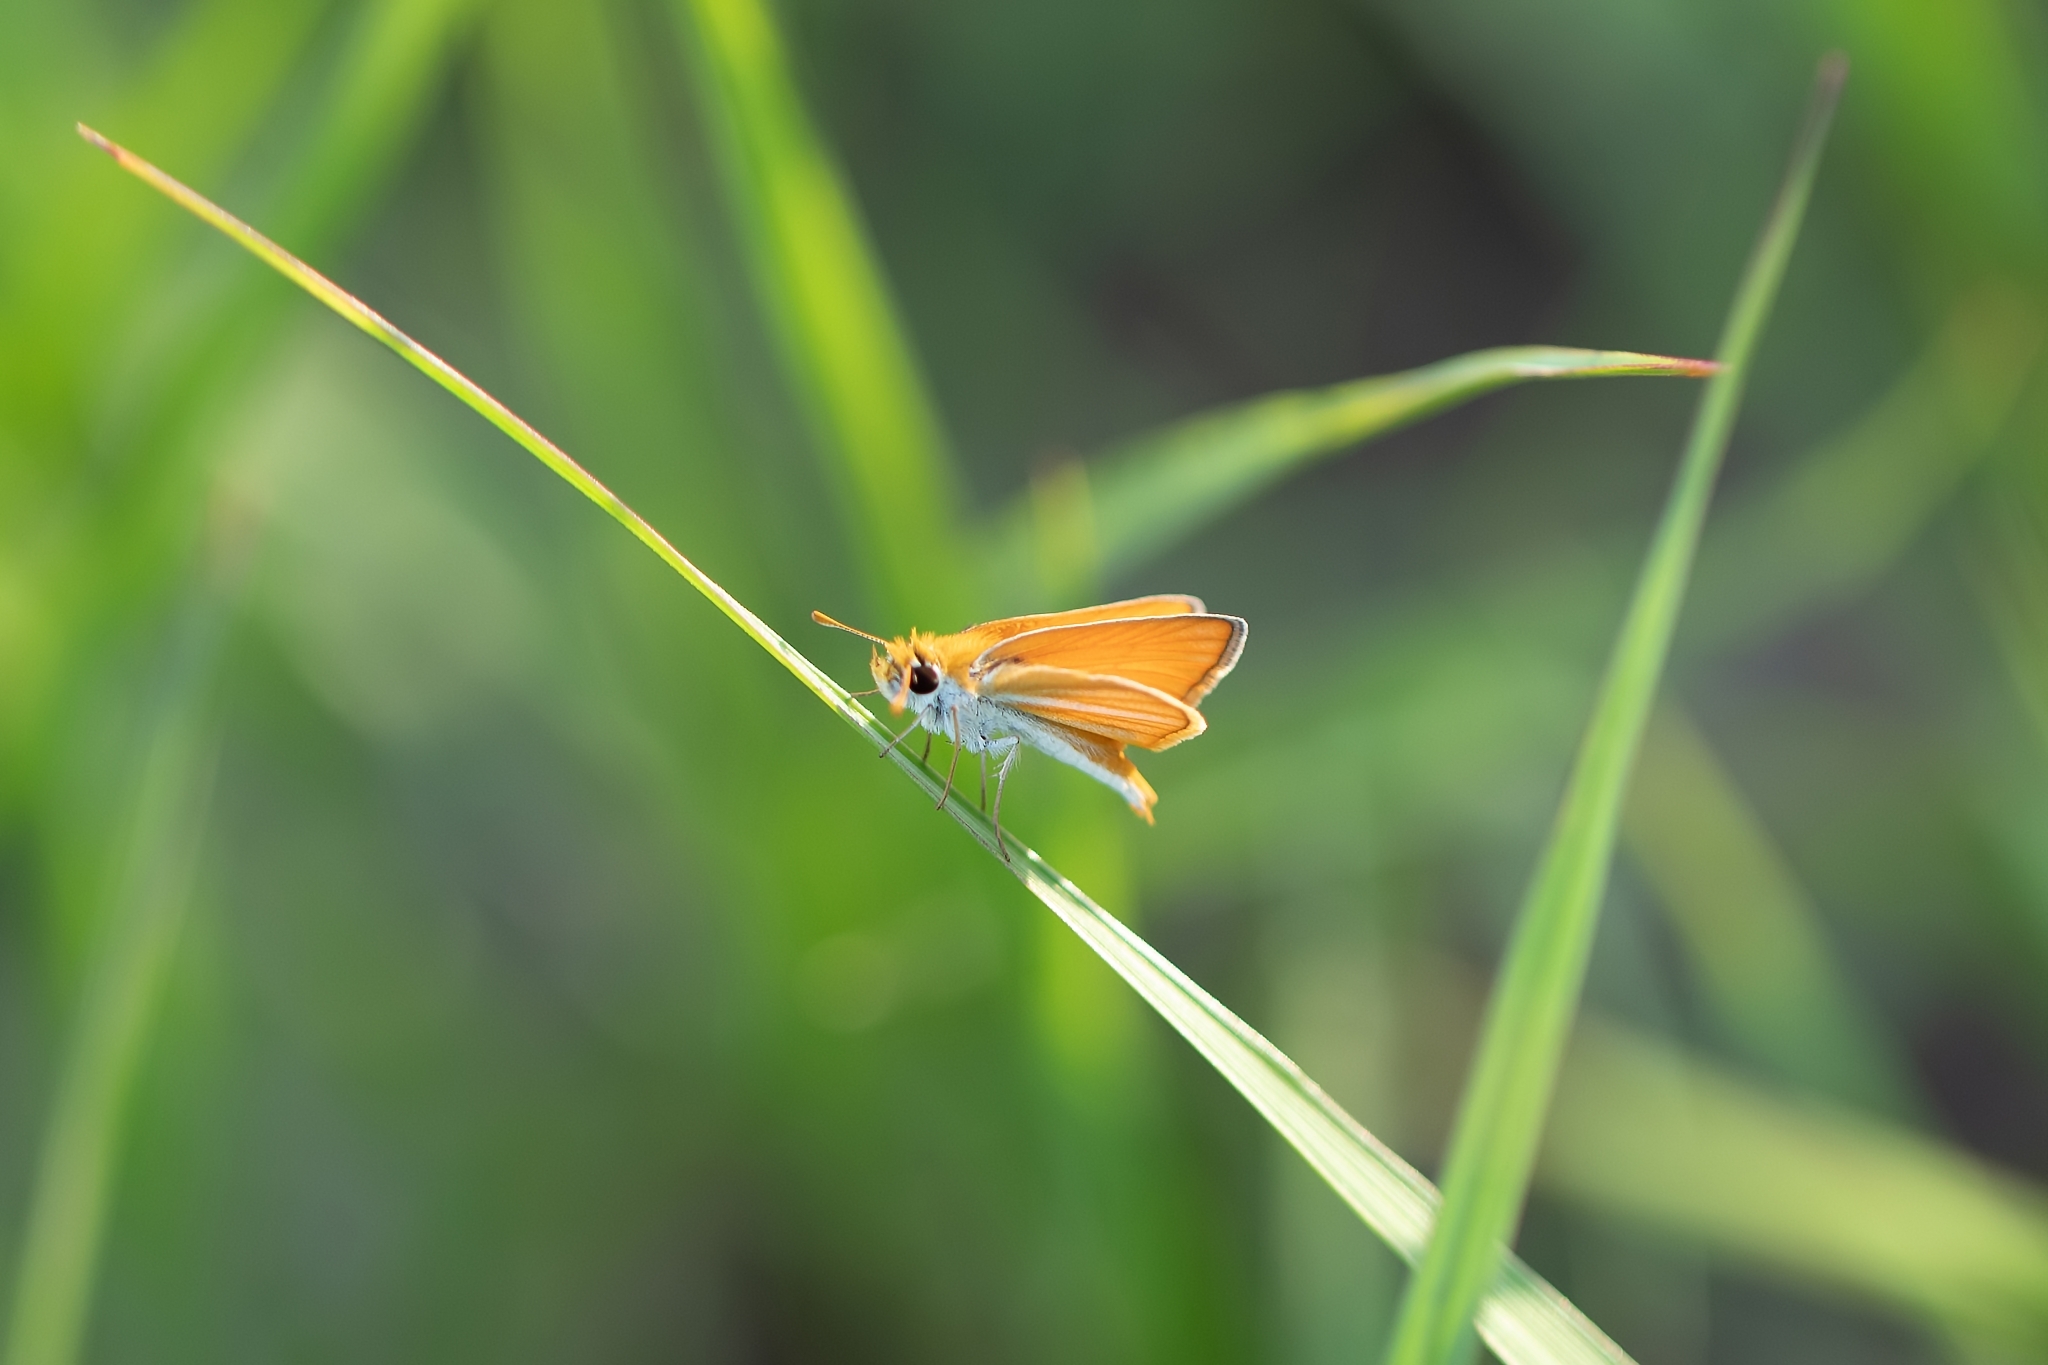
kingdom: Animalia
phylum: Arthropoda
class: Insecta
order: Lepidoptera
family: Hesperiidae
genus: Copaeodes
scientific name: Copaeodes minima
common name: Southern skipperling
